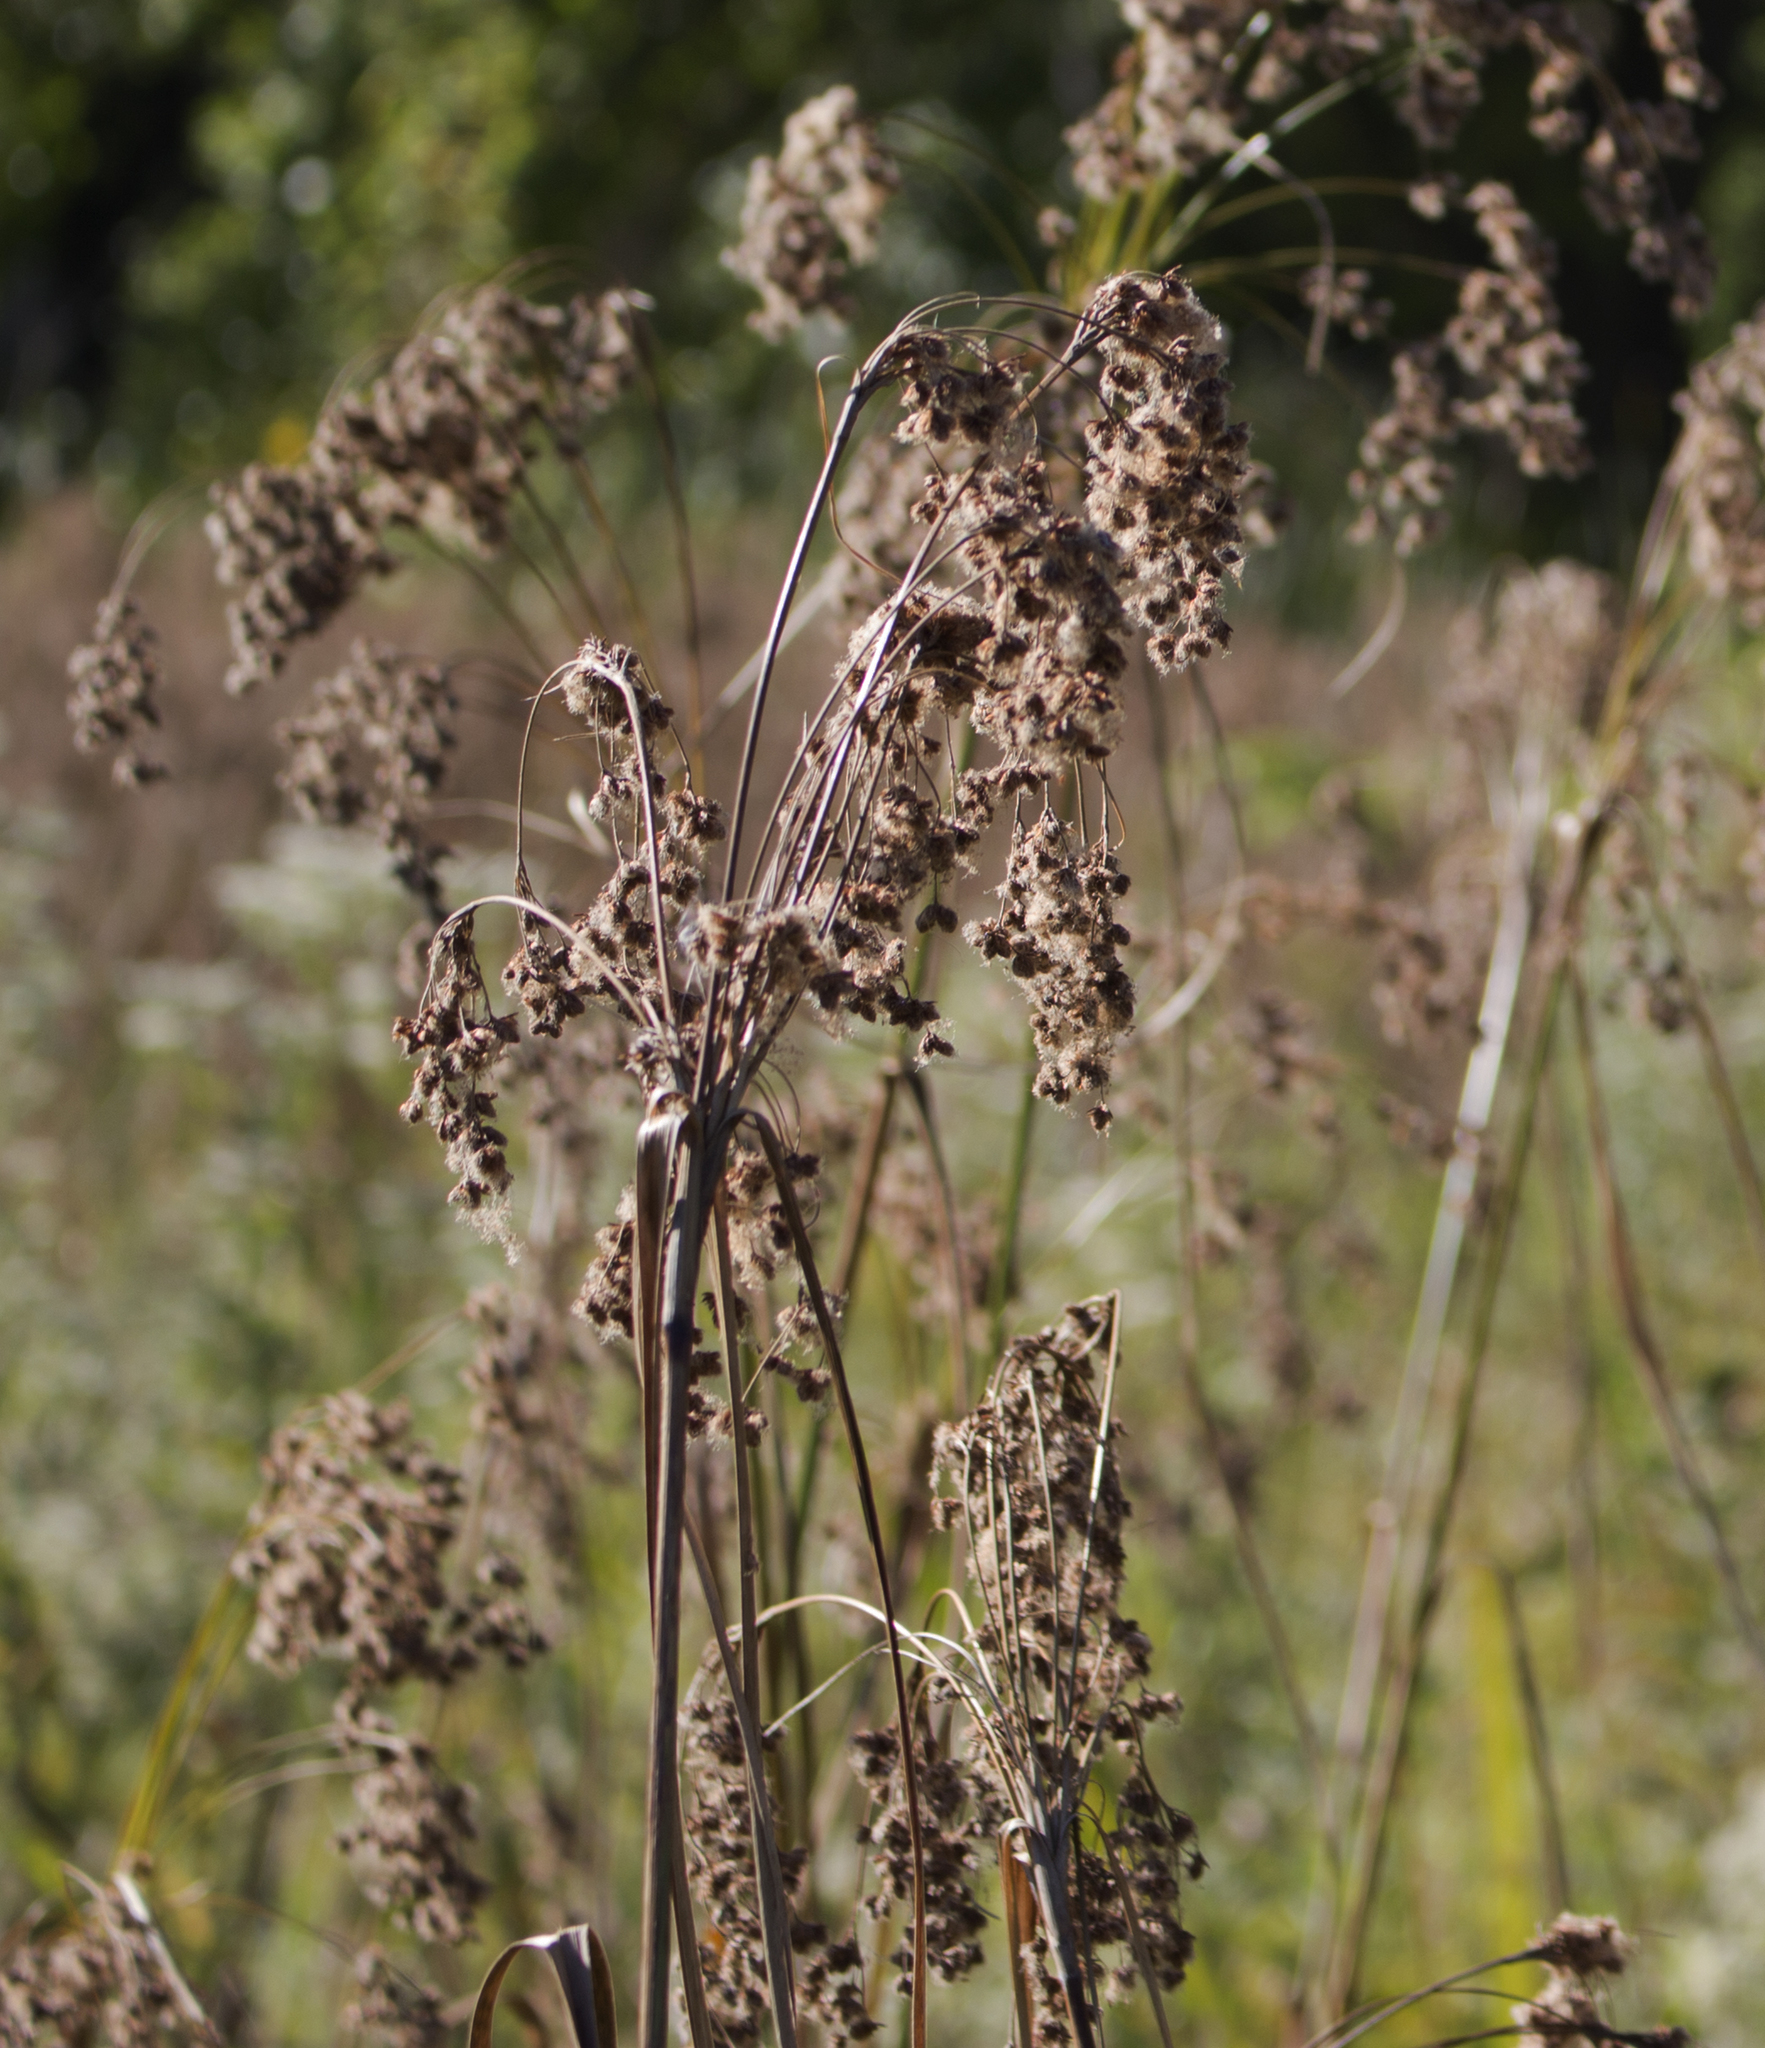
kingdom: Plantae
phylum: Tracheophyta
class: Liliopsida
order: Poales
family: Cyperaceae
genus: Scirpus
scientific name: Scirpus cyperinus
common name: Black-sheathed bulrush
